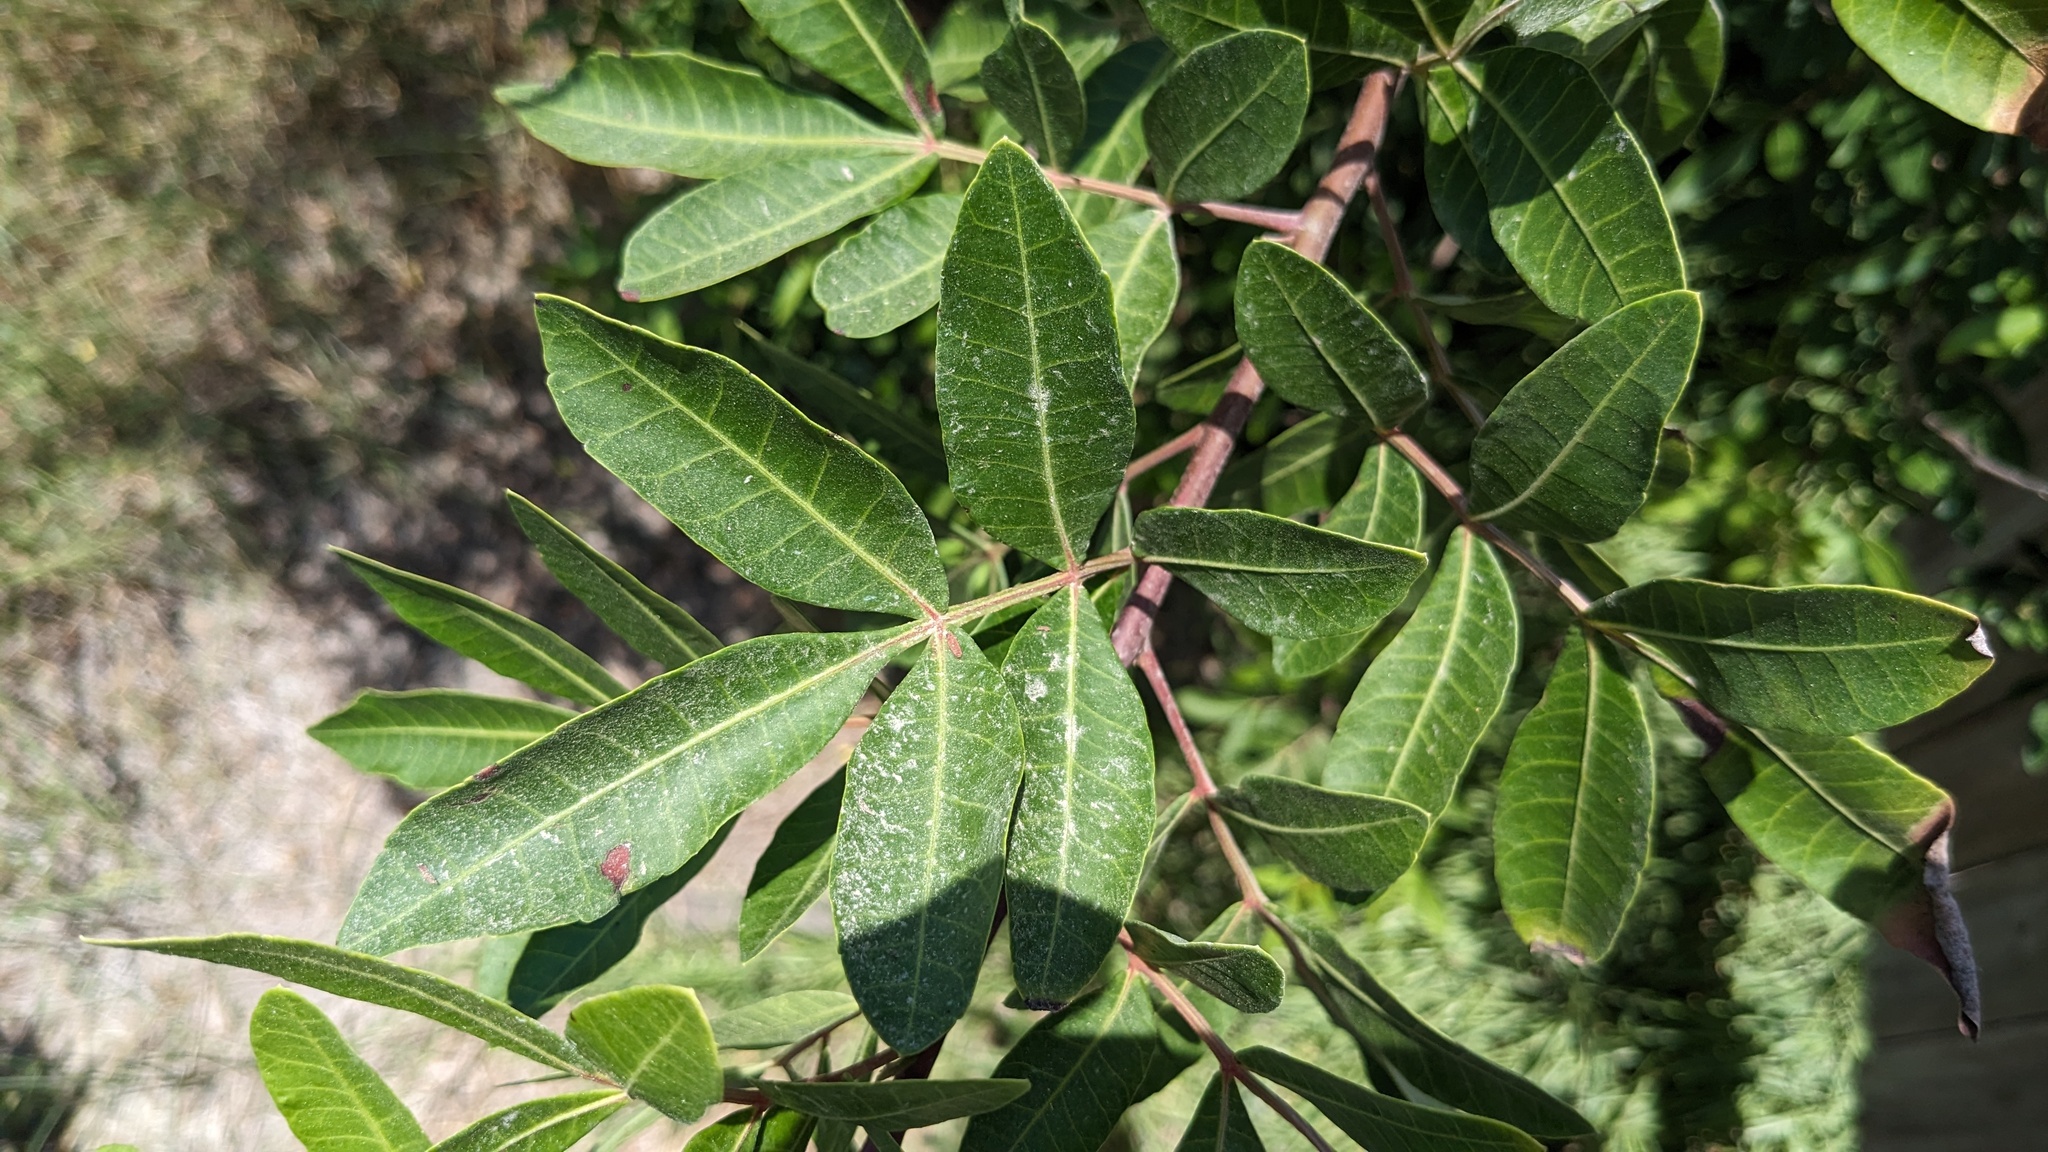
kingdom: Plantae
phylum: Tracheophyta
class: Magnoliopsida
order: Sapindales
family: Anacardiaceae
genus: Schinus
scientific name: Schinus terebinthifolia
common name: Brazilian peppertree
